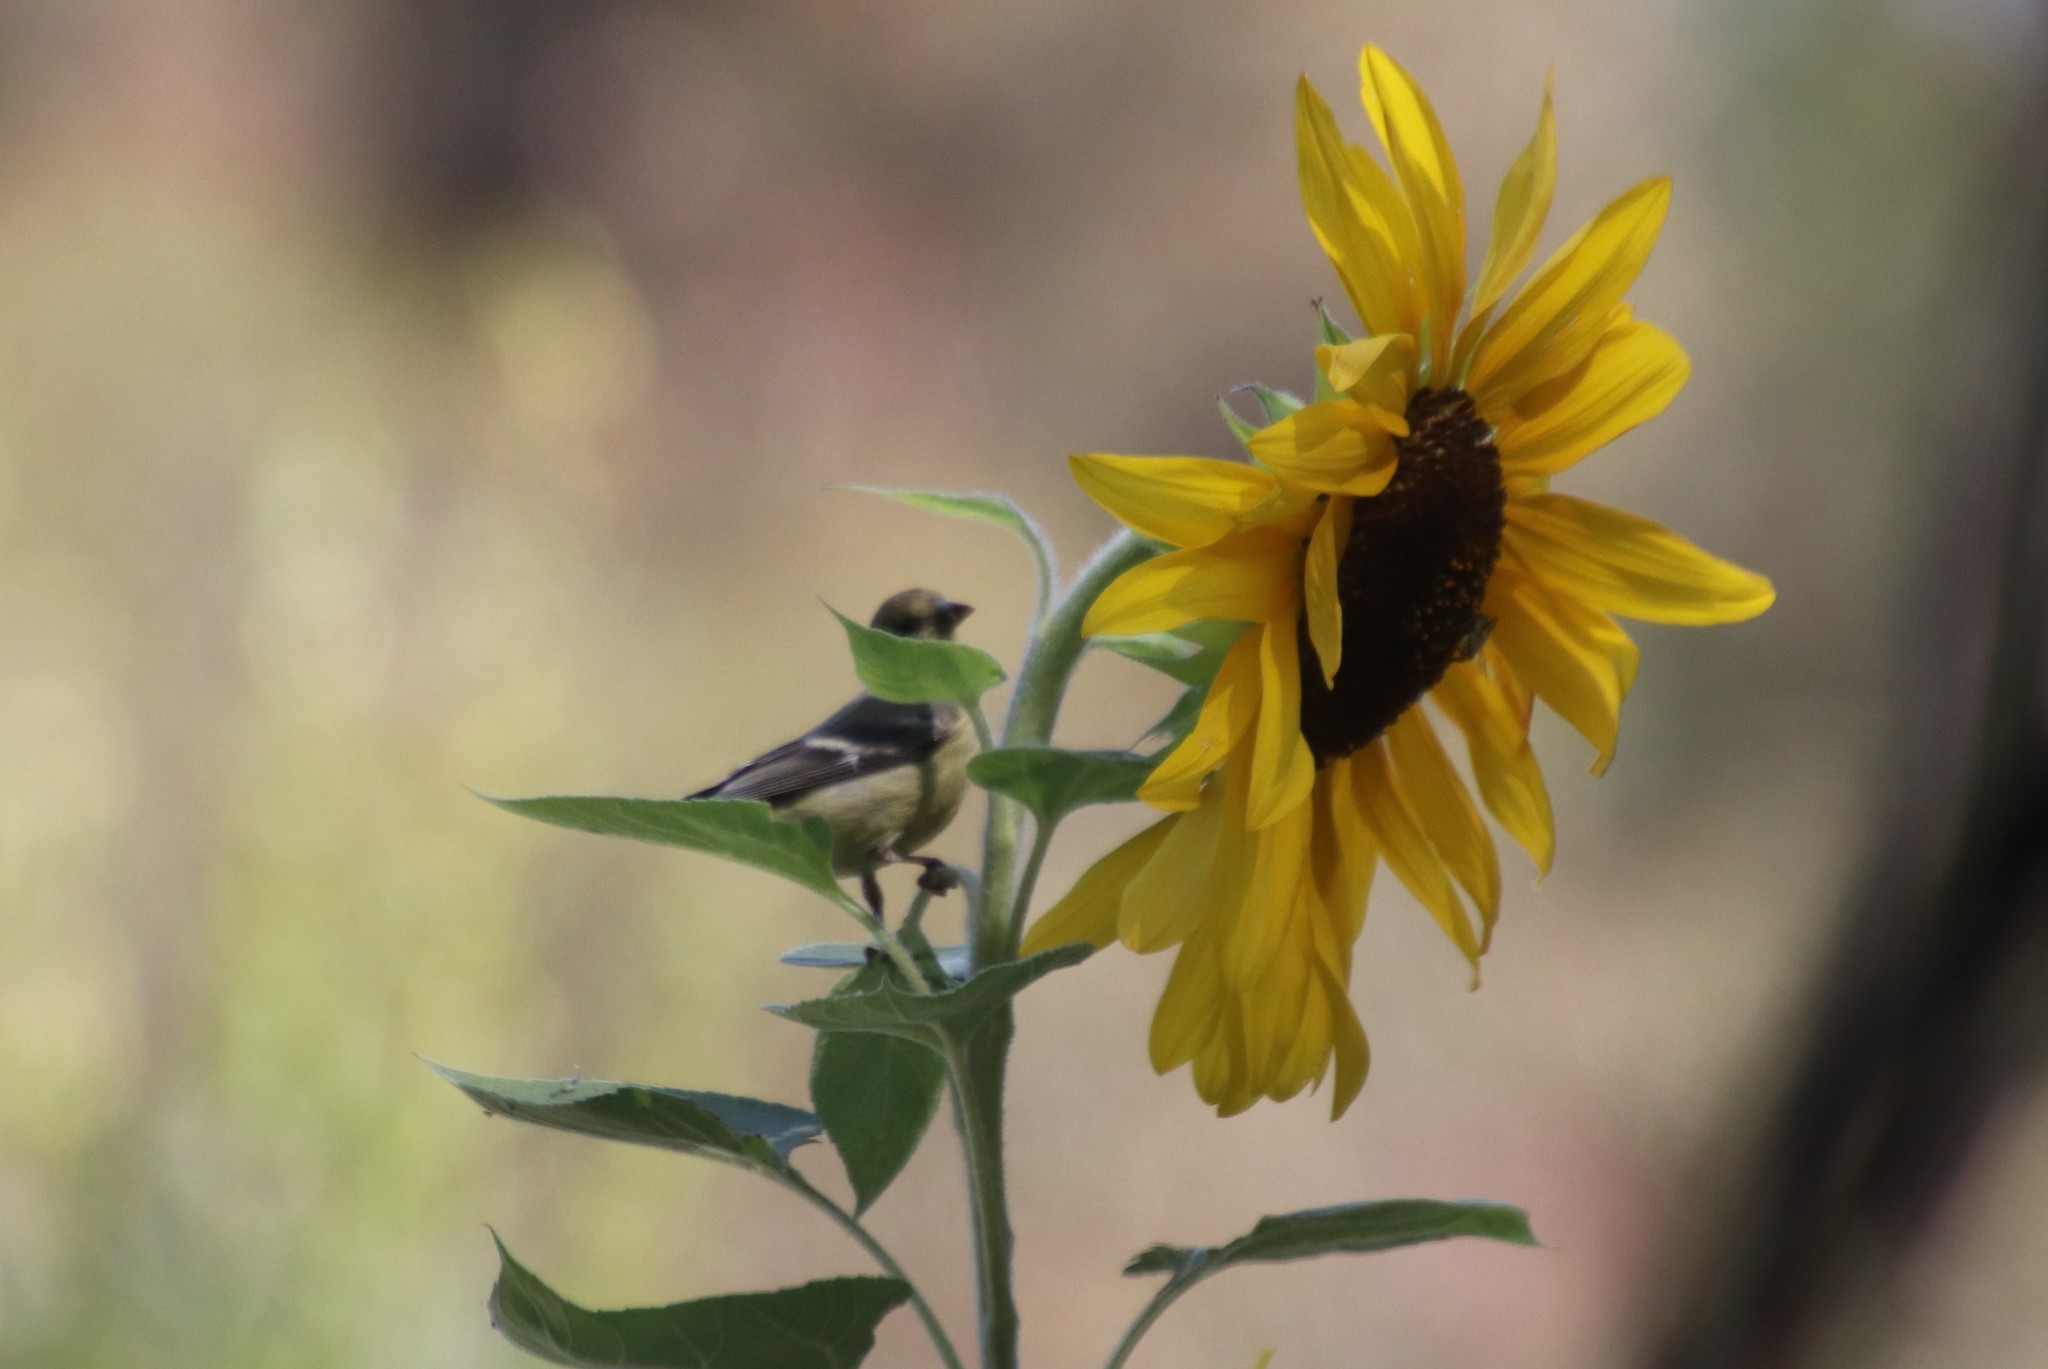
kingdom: Animalia
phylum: Chordata
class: Aves
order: Passeriformes
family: Fringillidae
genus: Spinus
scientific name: Spinus psaltria
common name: Lesser goldfinch
